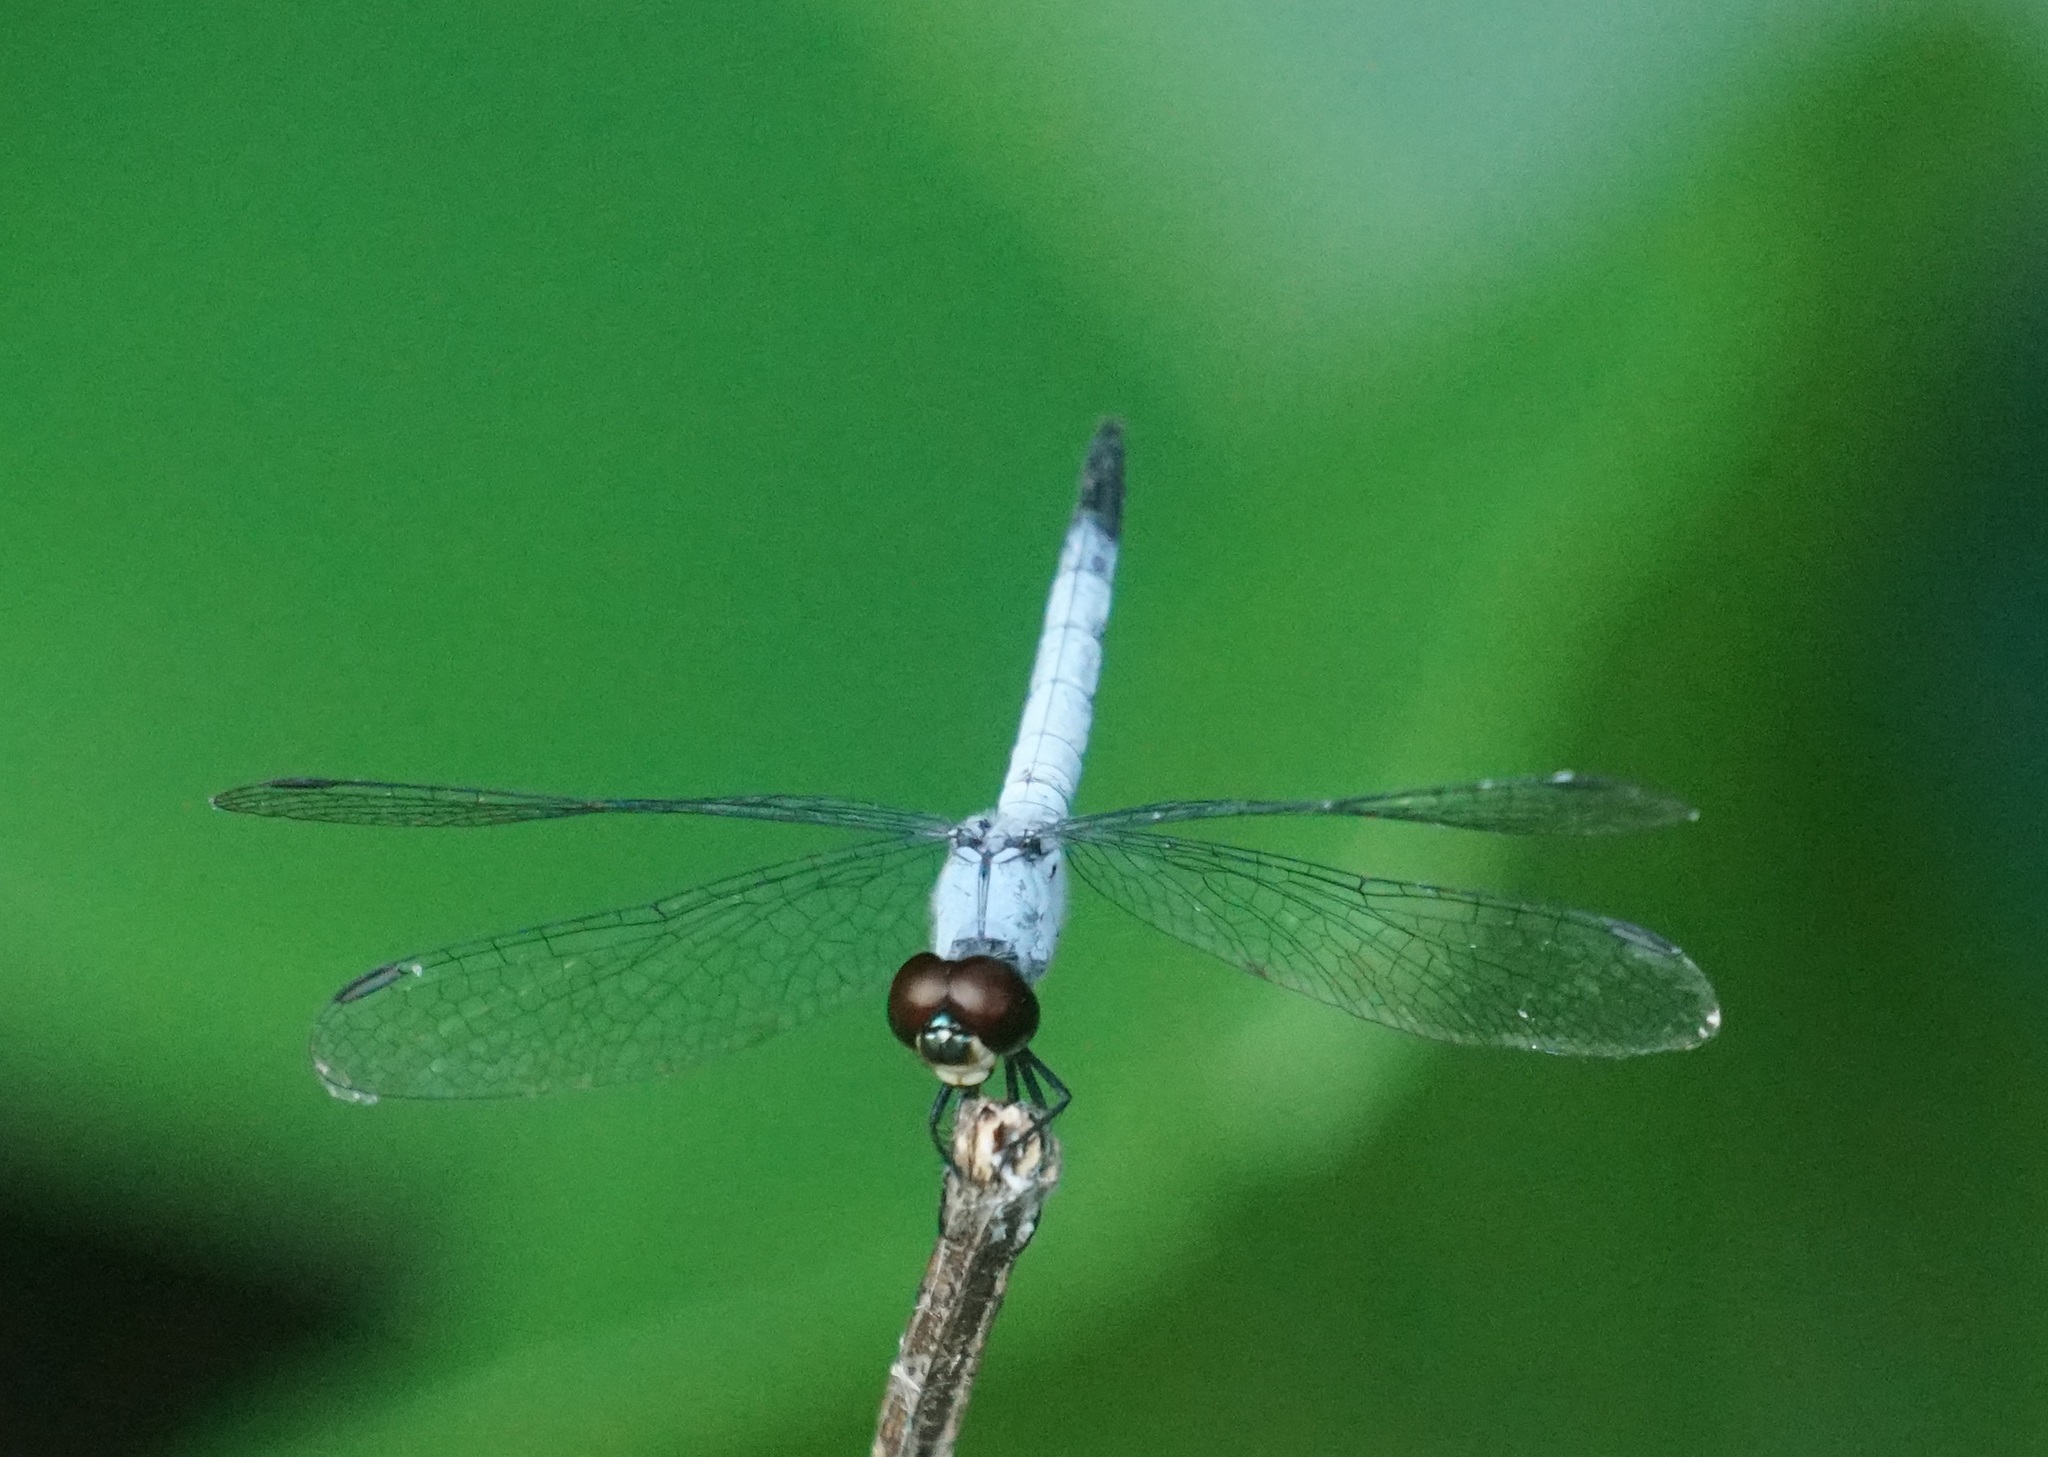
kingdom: Animalia
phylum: Arthropoda
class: Insecta
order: Odonata
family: Libellulidae
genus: Brachydiplax
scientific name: Brachydiplax denticauda
